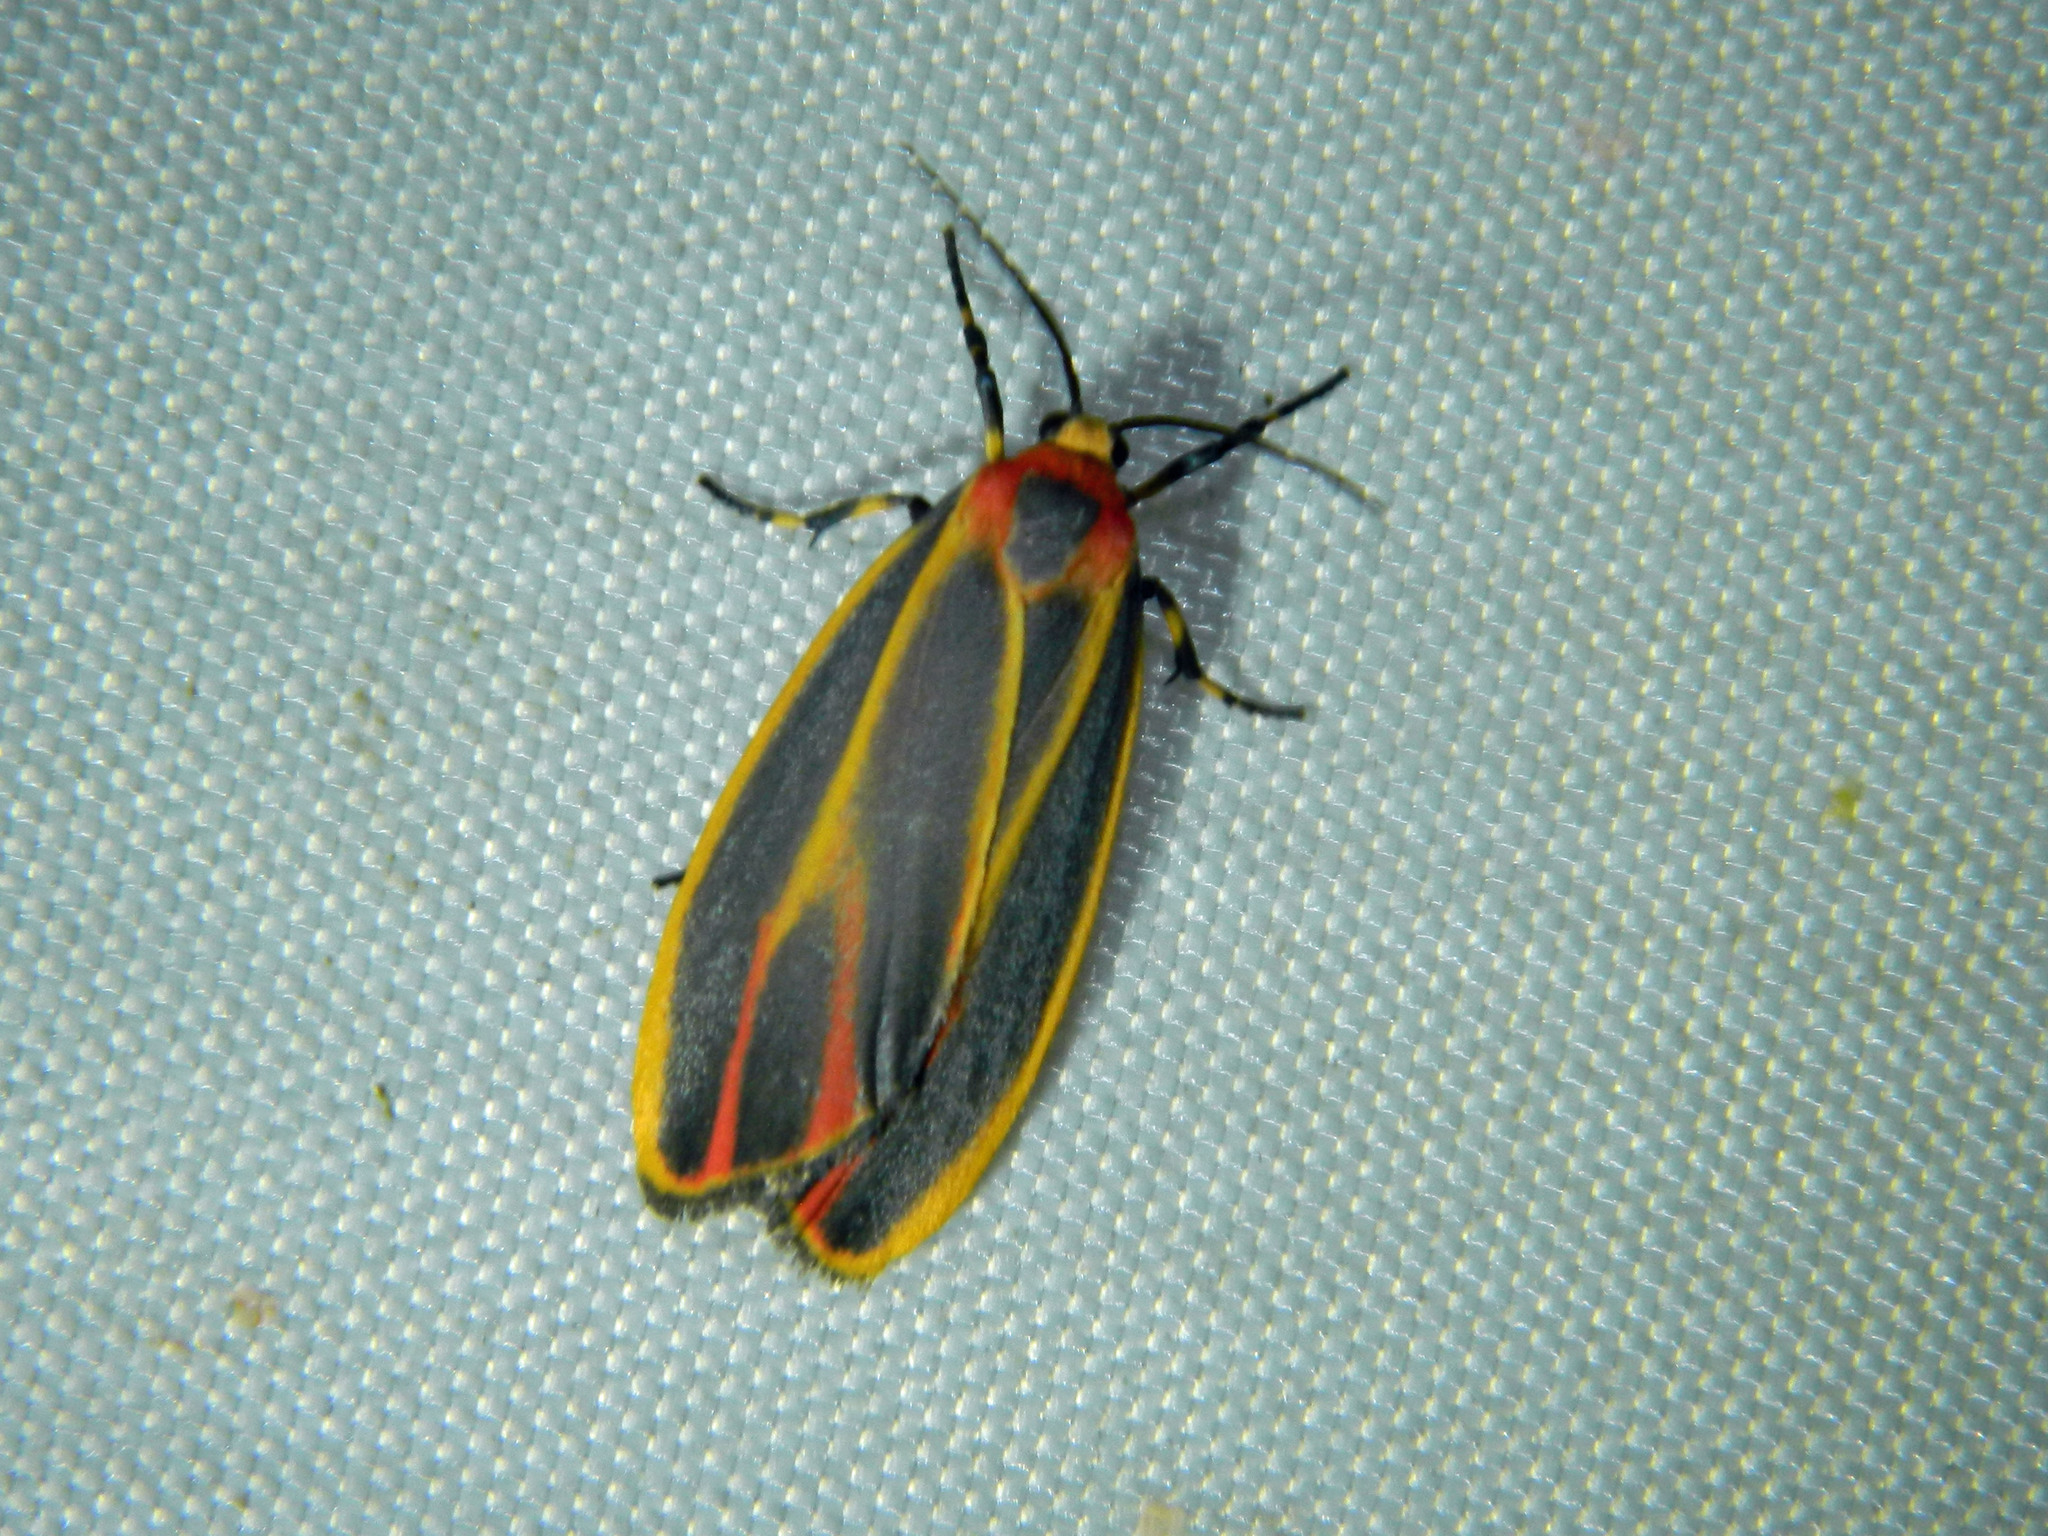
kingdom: Animalia
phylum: Arthropoda
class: Insecta
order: Lepidoptera
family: Erebidae
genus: Hypoprepia
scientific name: Hypoprepia fucosa
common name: Painted lichen moth
